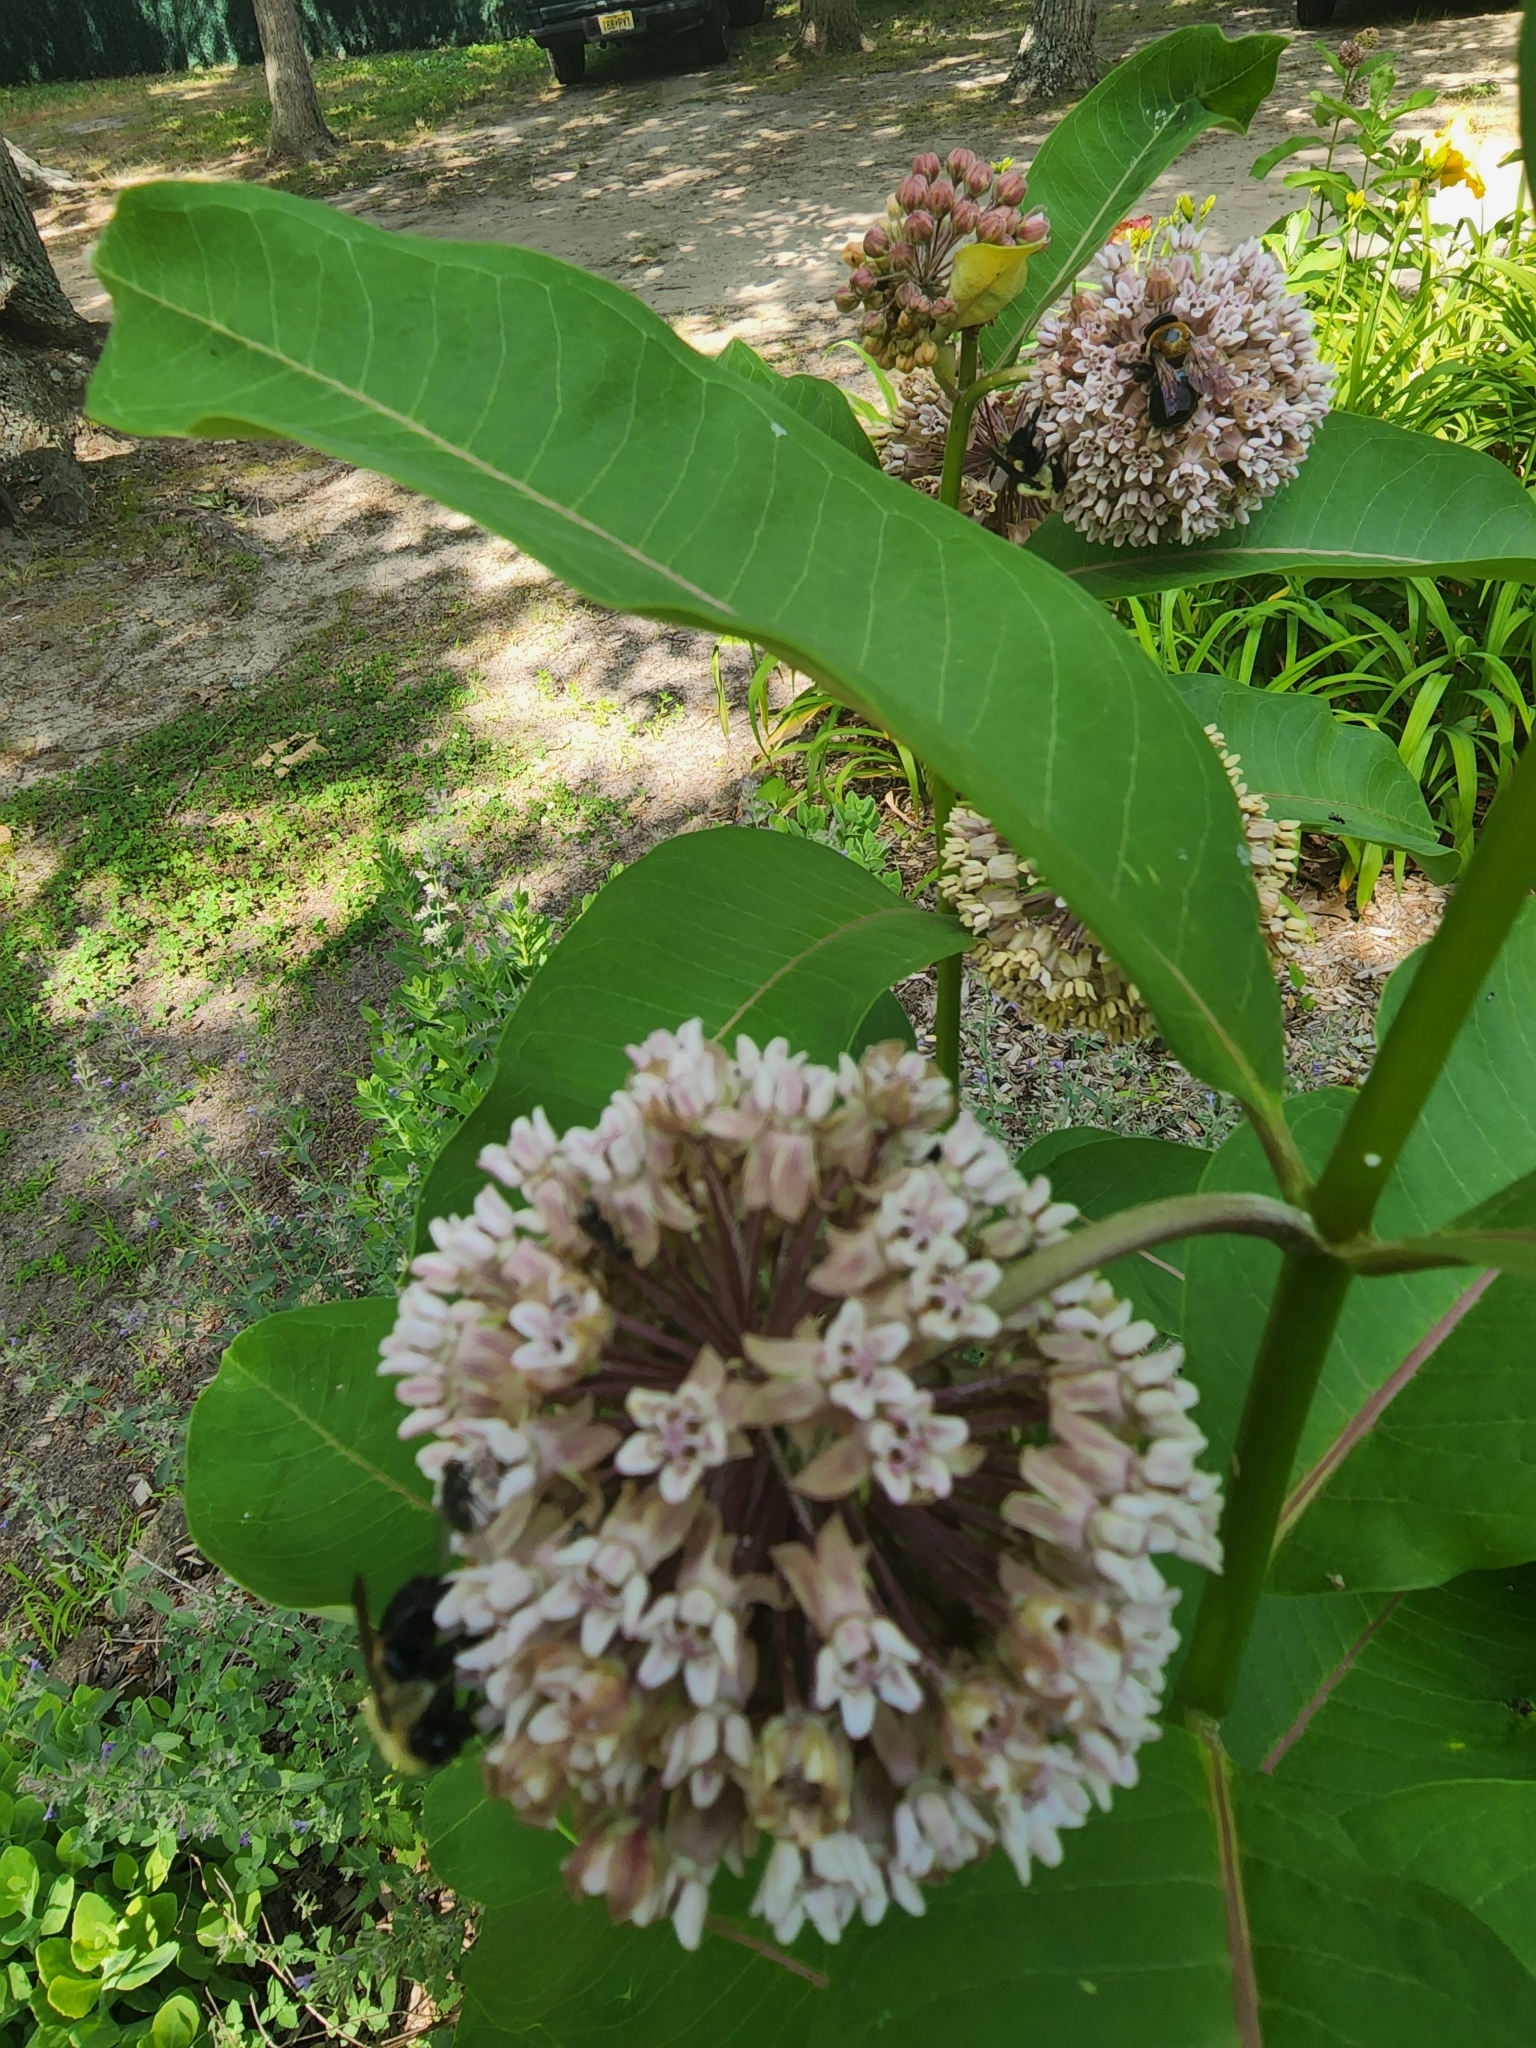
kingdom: Animalia
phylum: Arthropoda
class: Insecta
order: Hymenoptera
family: Apidae
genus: Xylocopa
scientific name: Xylocopa virginica
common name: Carpenter bee
